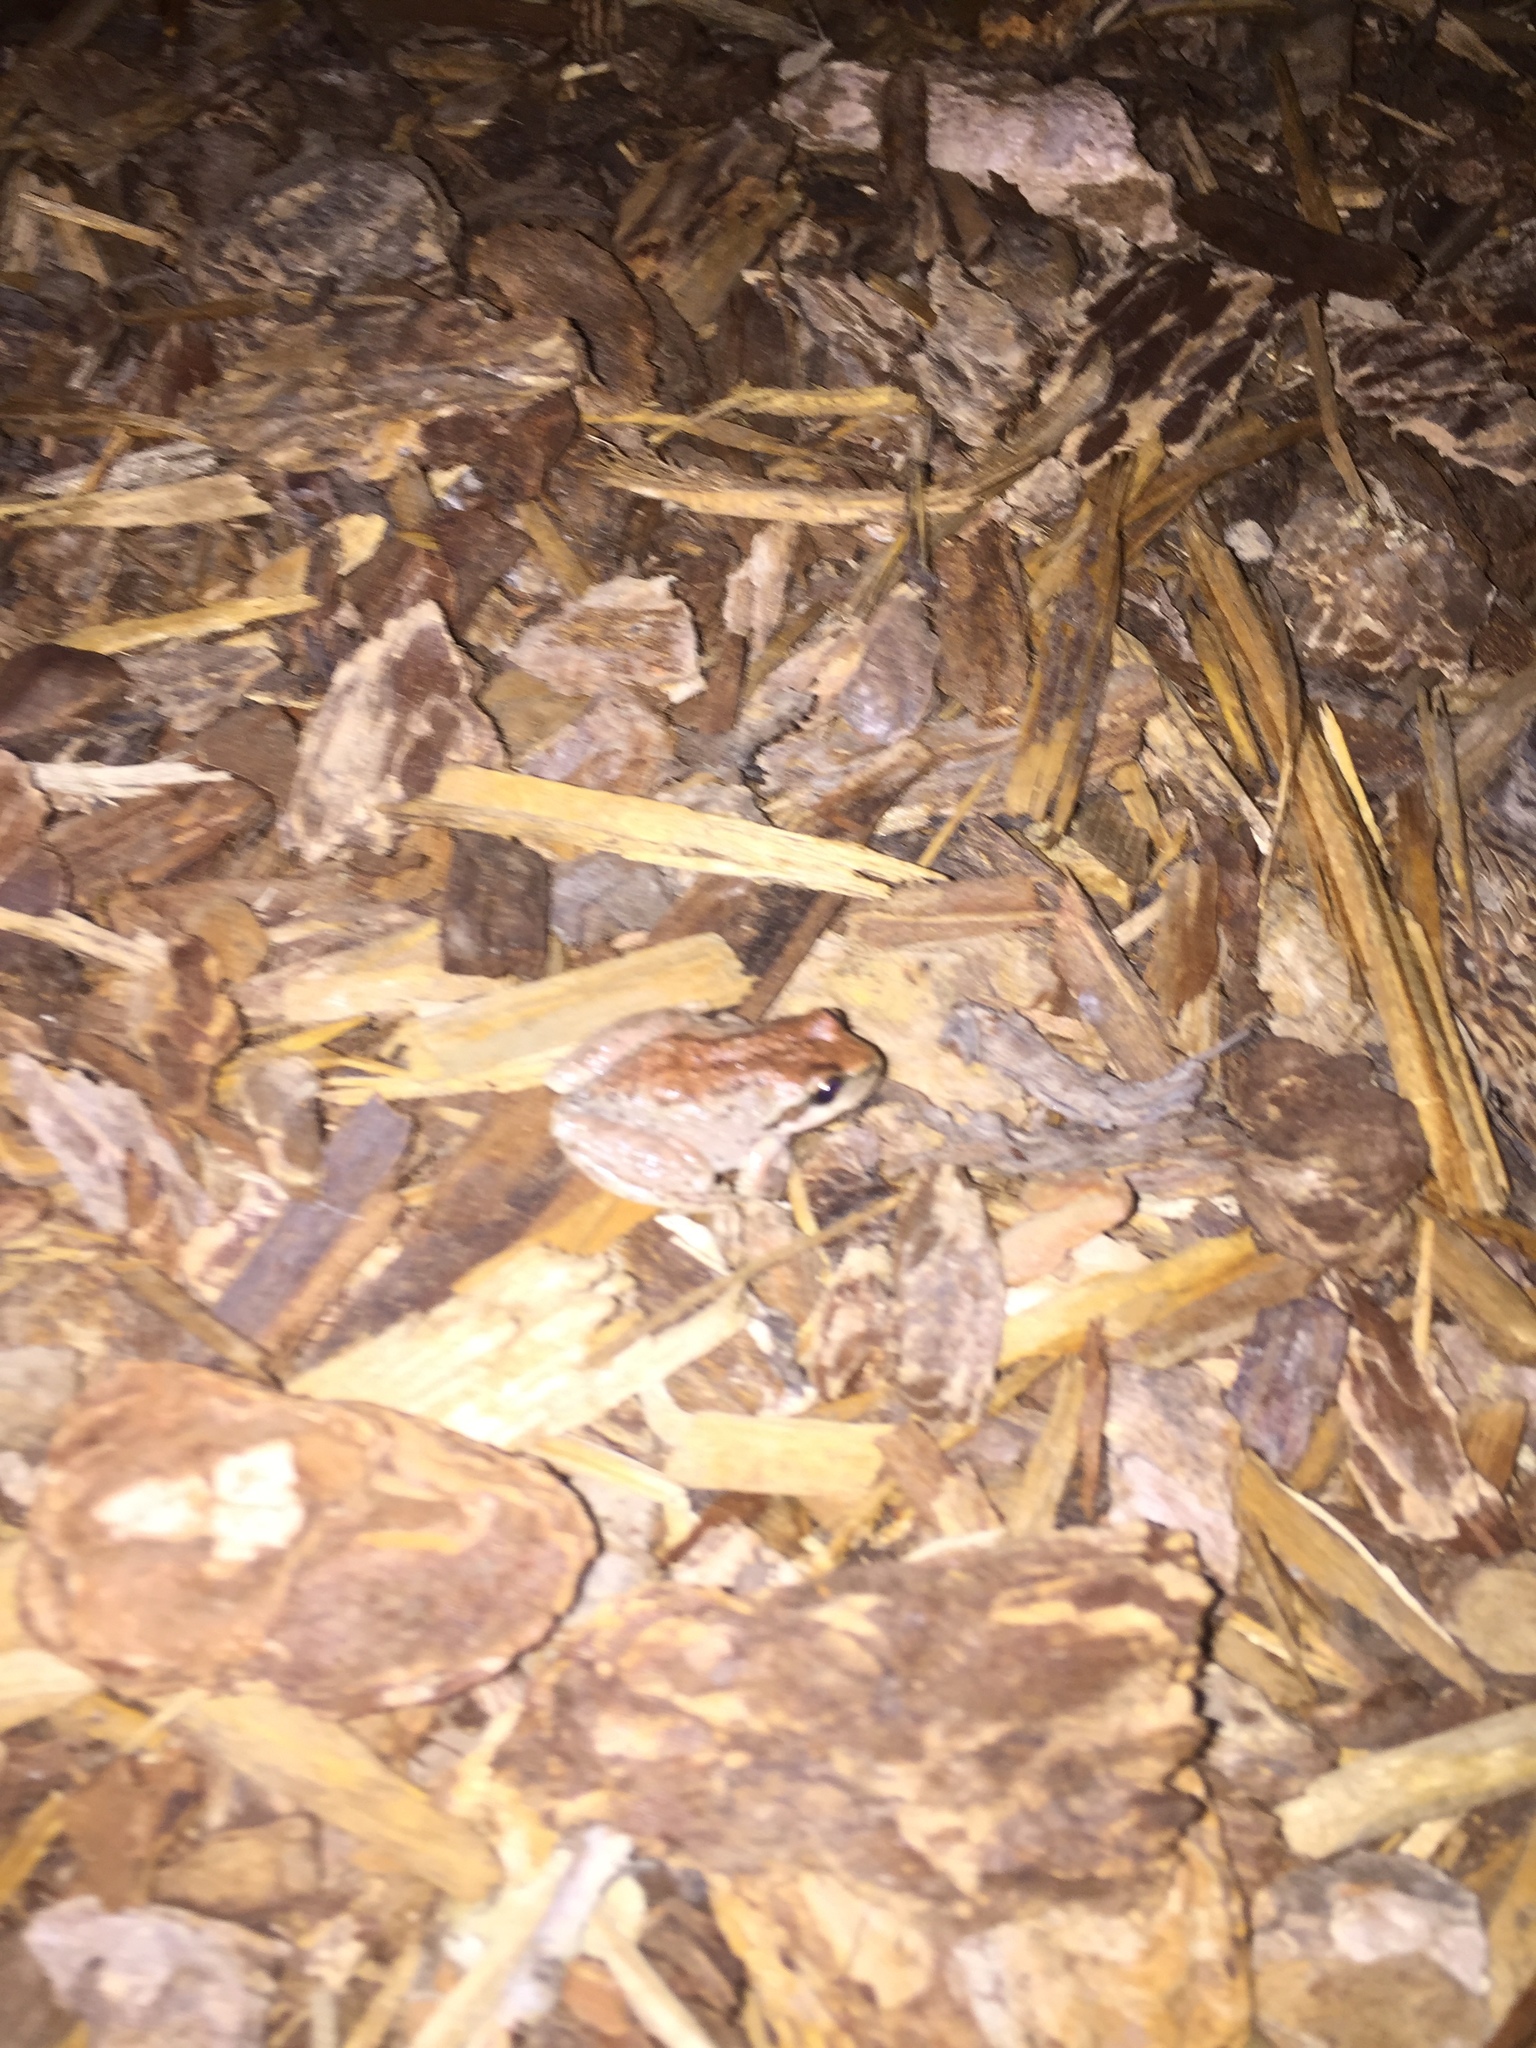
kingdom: Animalia
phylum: Chordata
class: Amphibia
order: Anura
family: Hylidae
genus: Pseudacris
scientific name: Pseudacris regilla
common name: Pacific chorus frog
